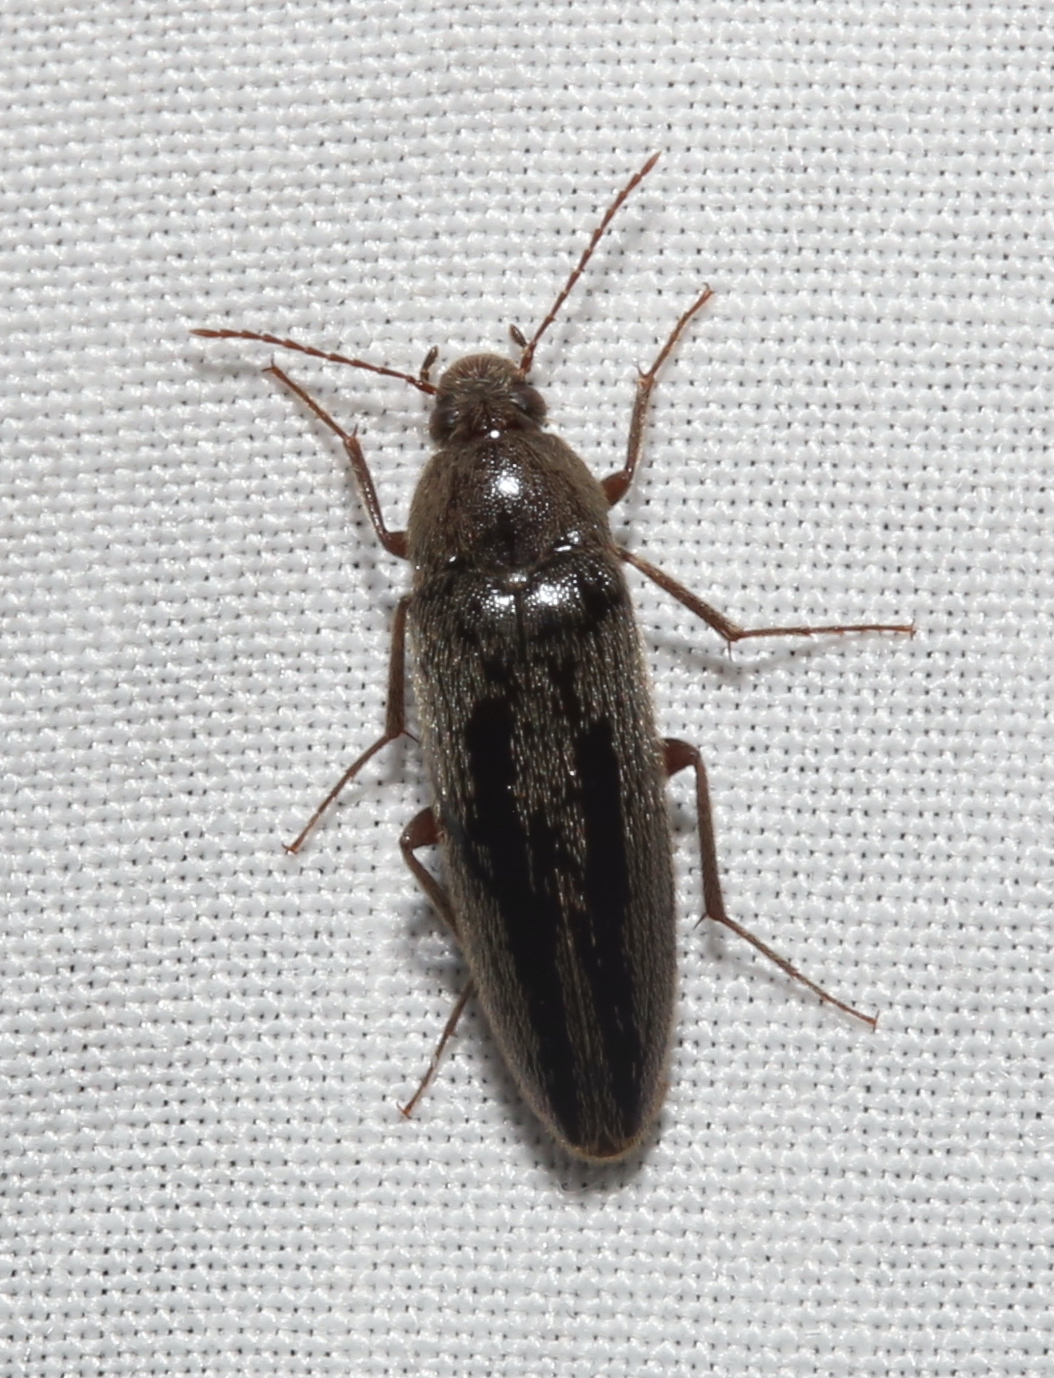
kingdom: Animalia
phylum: Arthropoda
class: Insecta
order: Coleoptera
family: Synchroidae
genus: Synchroa
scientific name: Synchroa punctata
